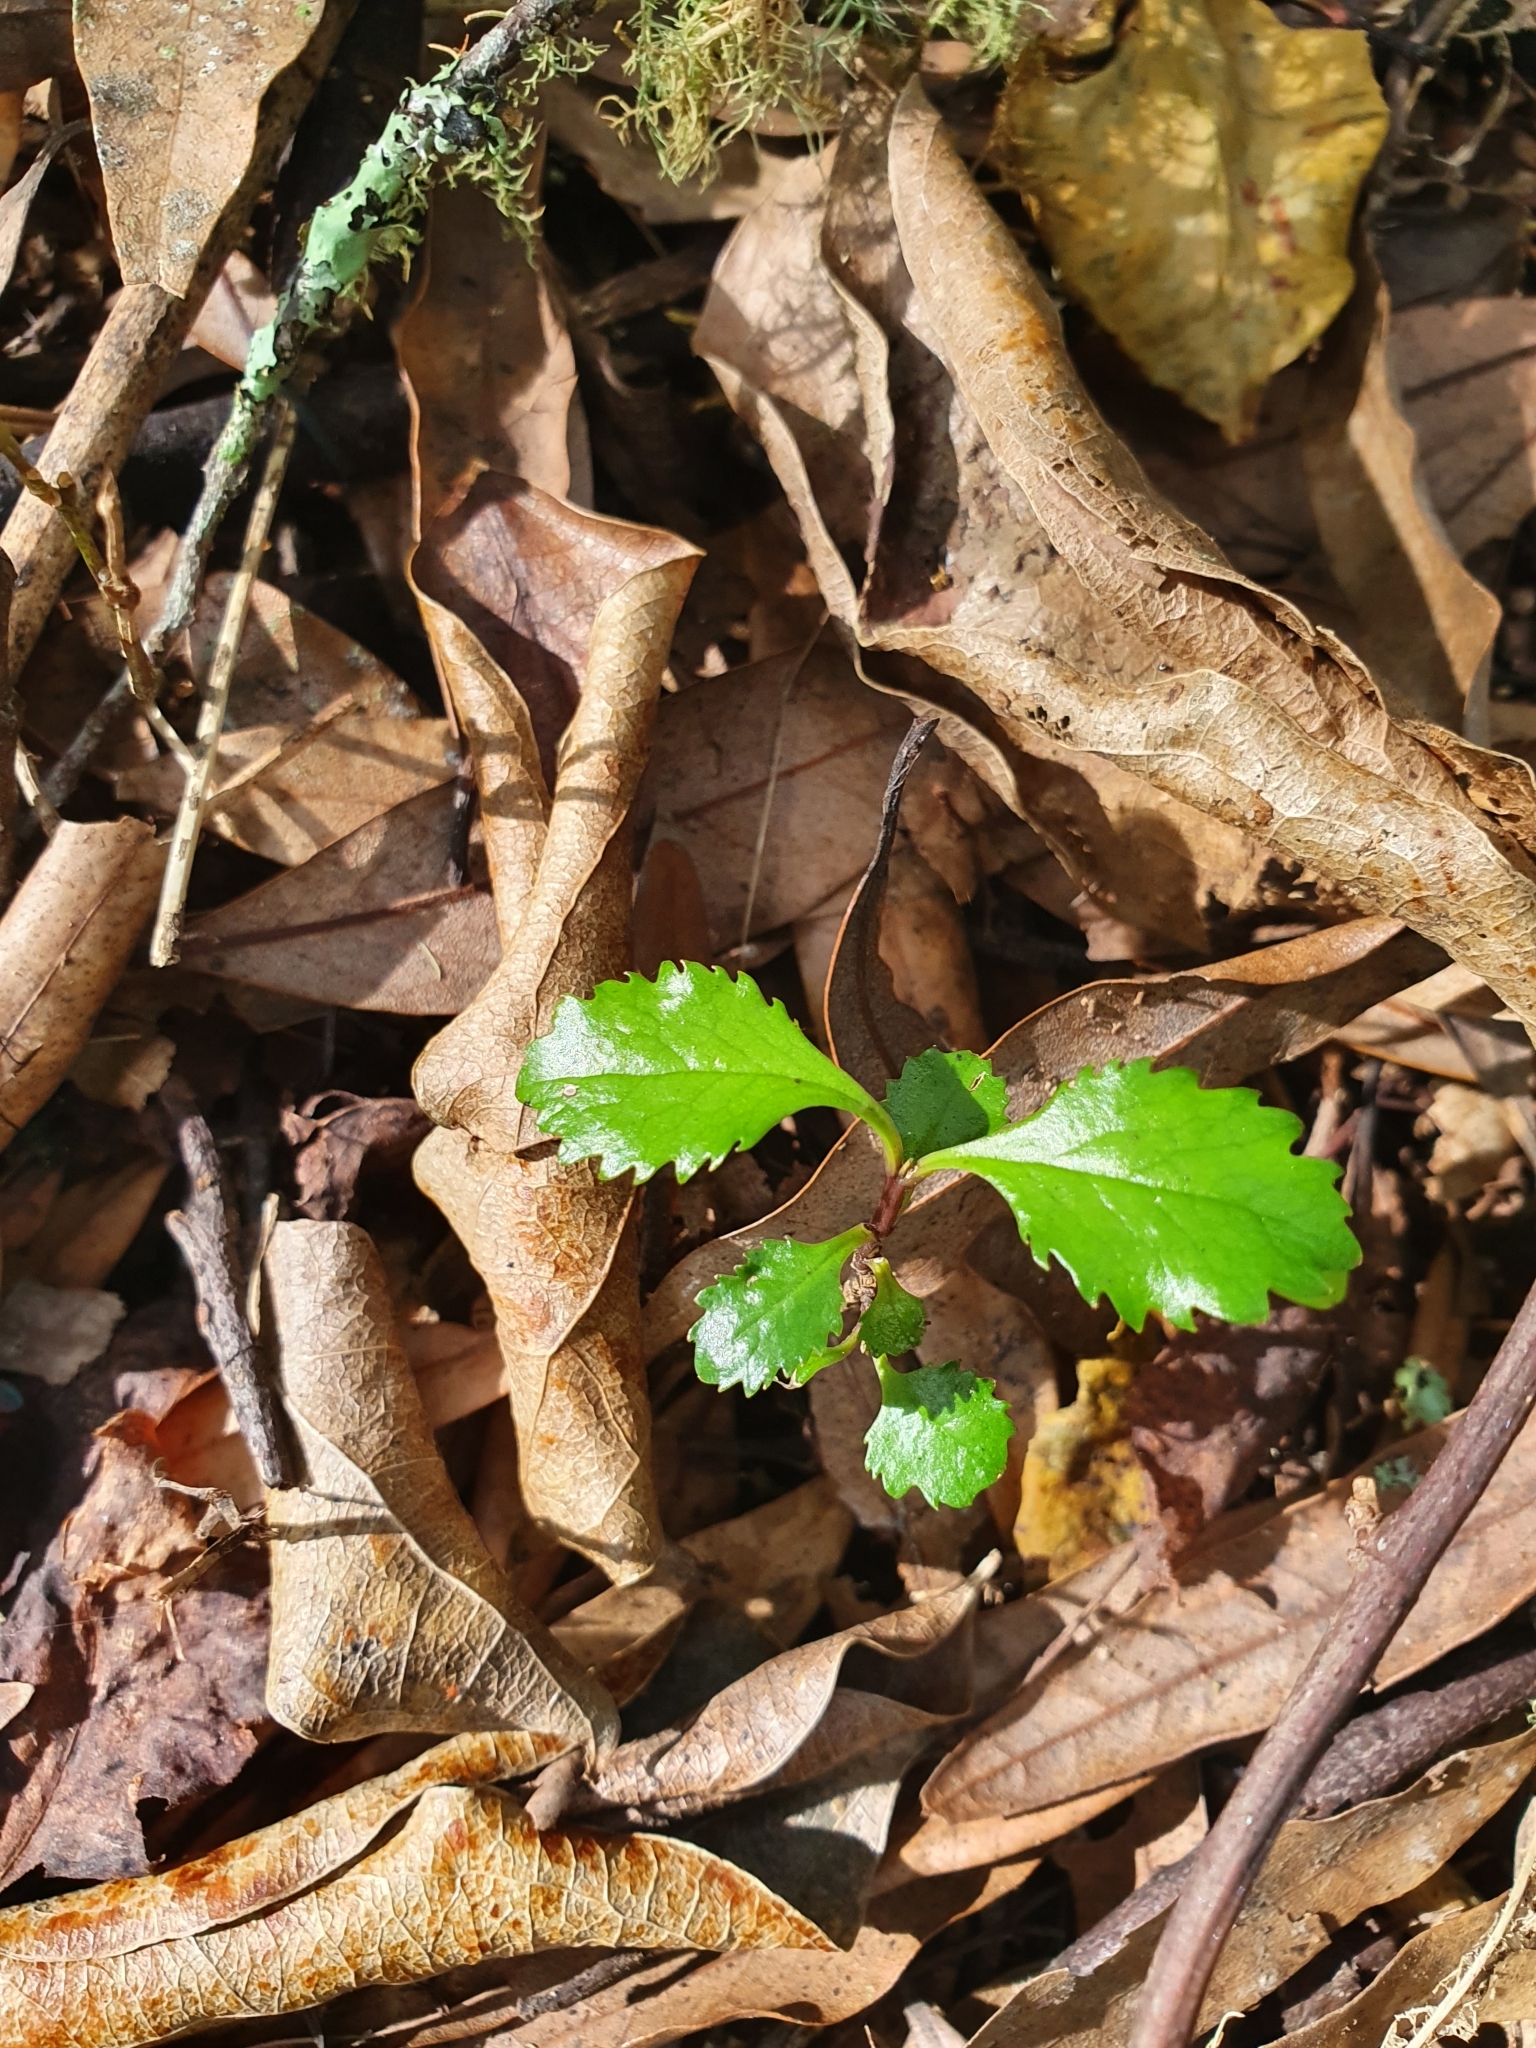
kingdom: Plantae
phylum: Tracheophyta
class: Magnoliopsida
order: Laurales
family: Atherospermataceae
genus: Laurelia
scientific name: Laurelia novae-zelandiae
